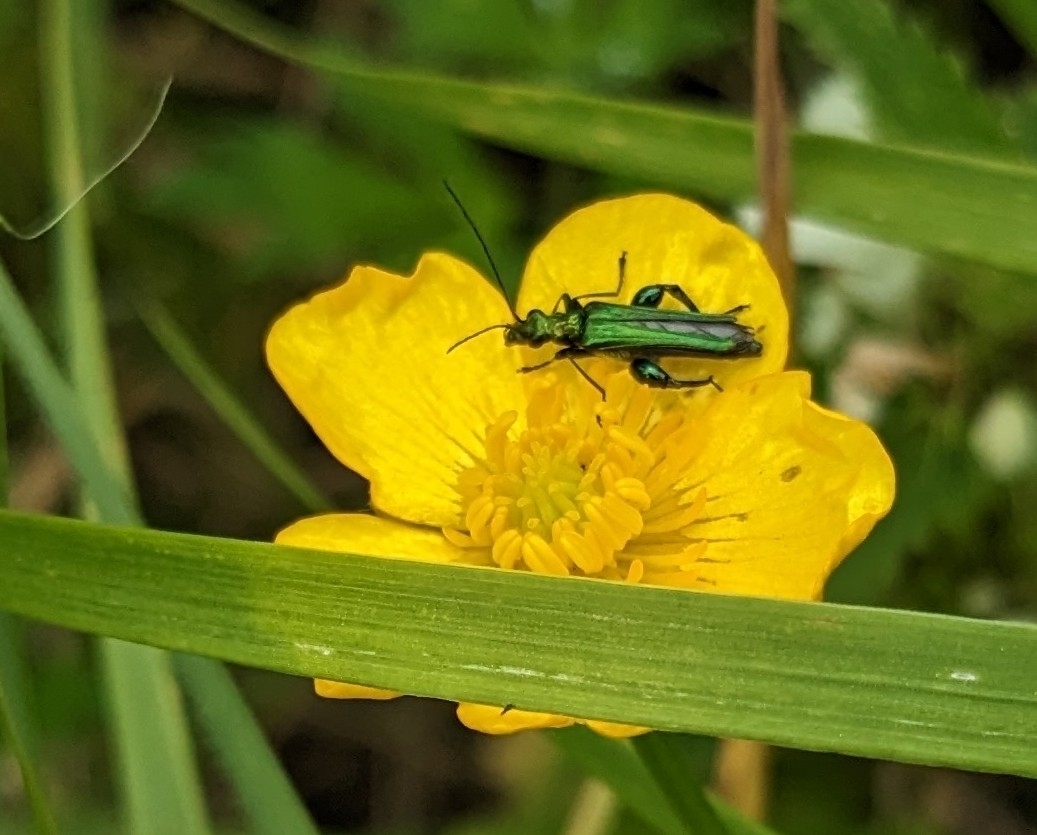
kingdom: Animalia
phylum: Arthropoda
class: Insecta
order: Coleoptera
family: Oedemeridae
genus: Oedemera
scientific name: Oedemera nobilis
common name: Swollen-thighed beetle
